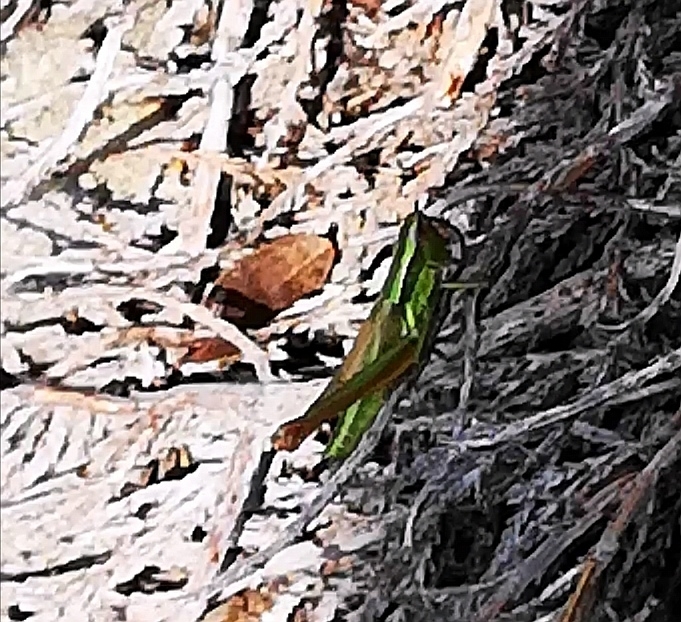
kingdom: Animalia
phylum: Arthropoda
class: Insecta
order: Orthoptera
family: Acrididae
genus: Euthystira
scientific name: Euthystira brachyptera
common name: Small gold grasshopper
